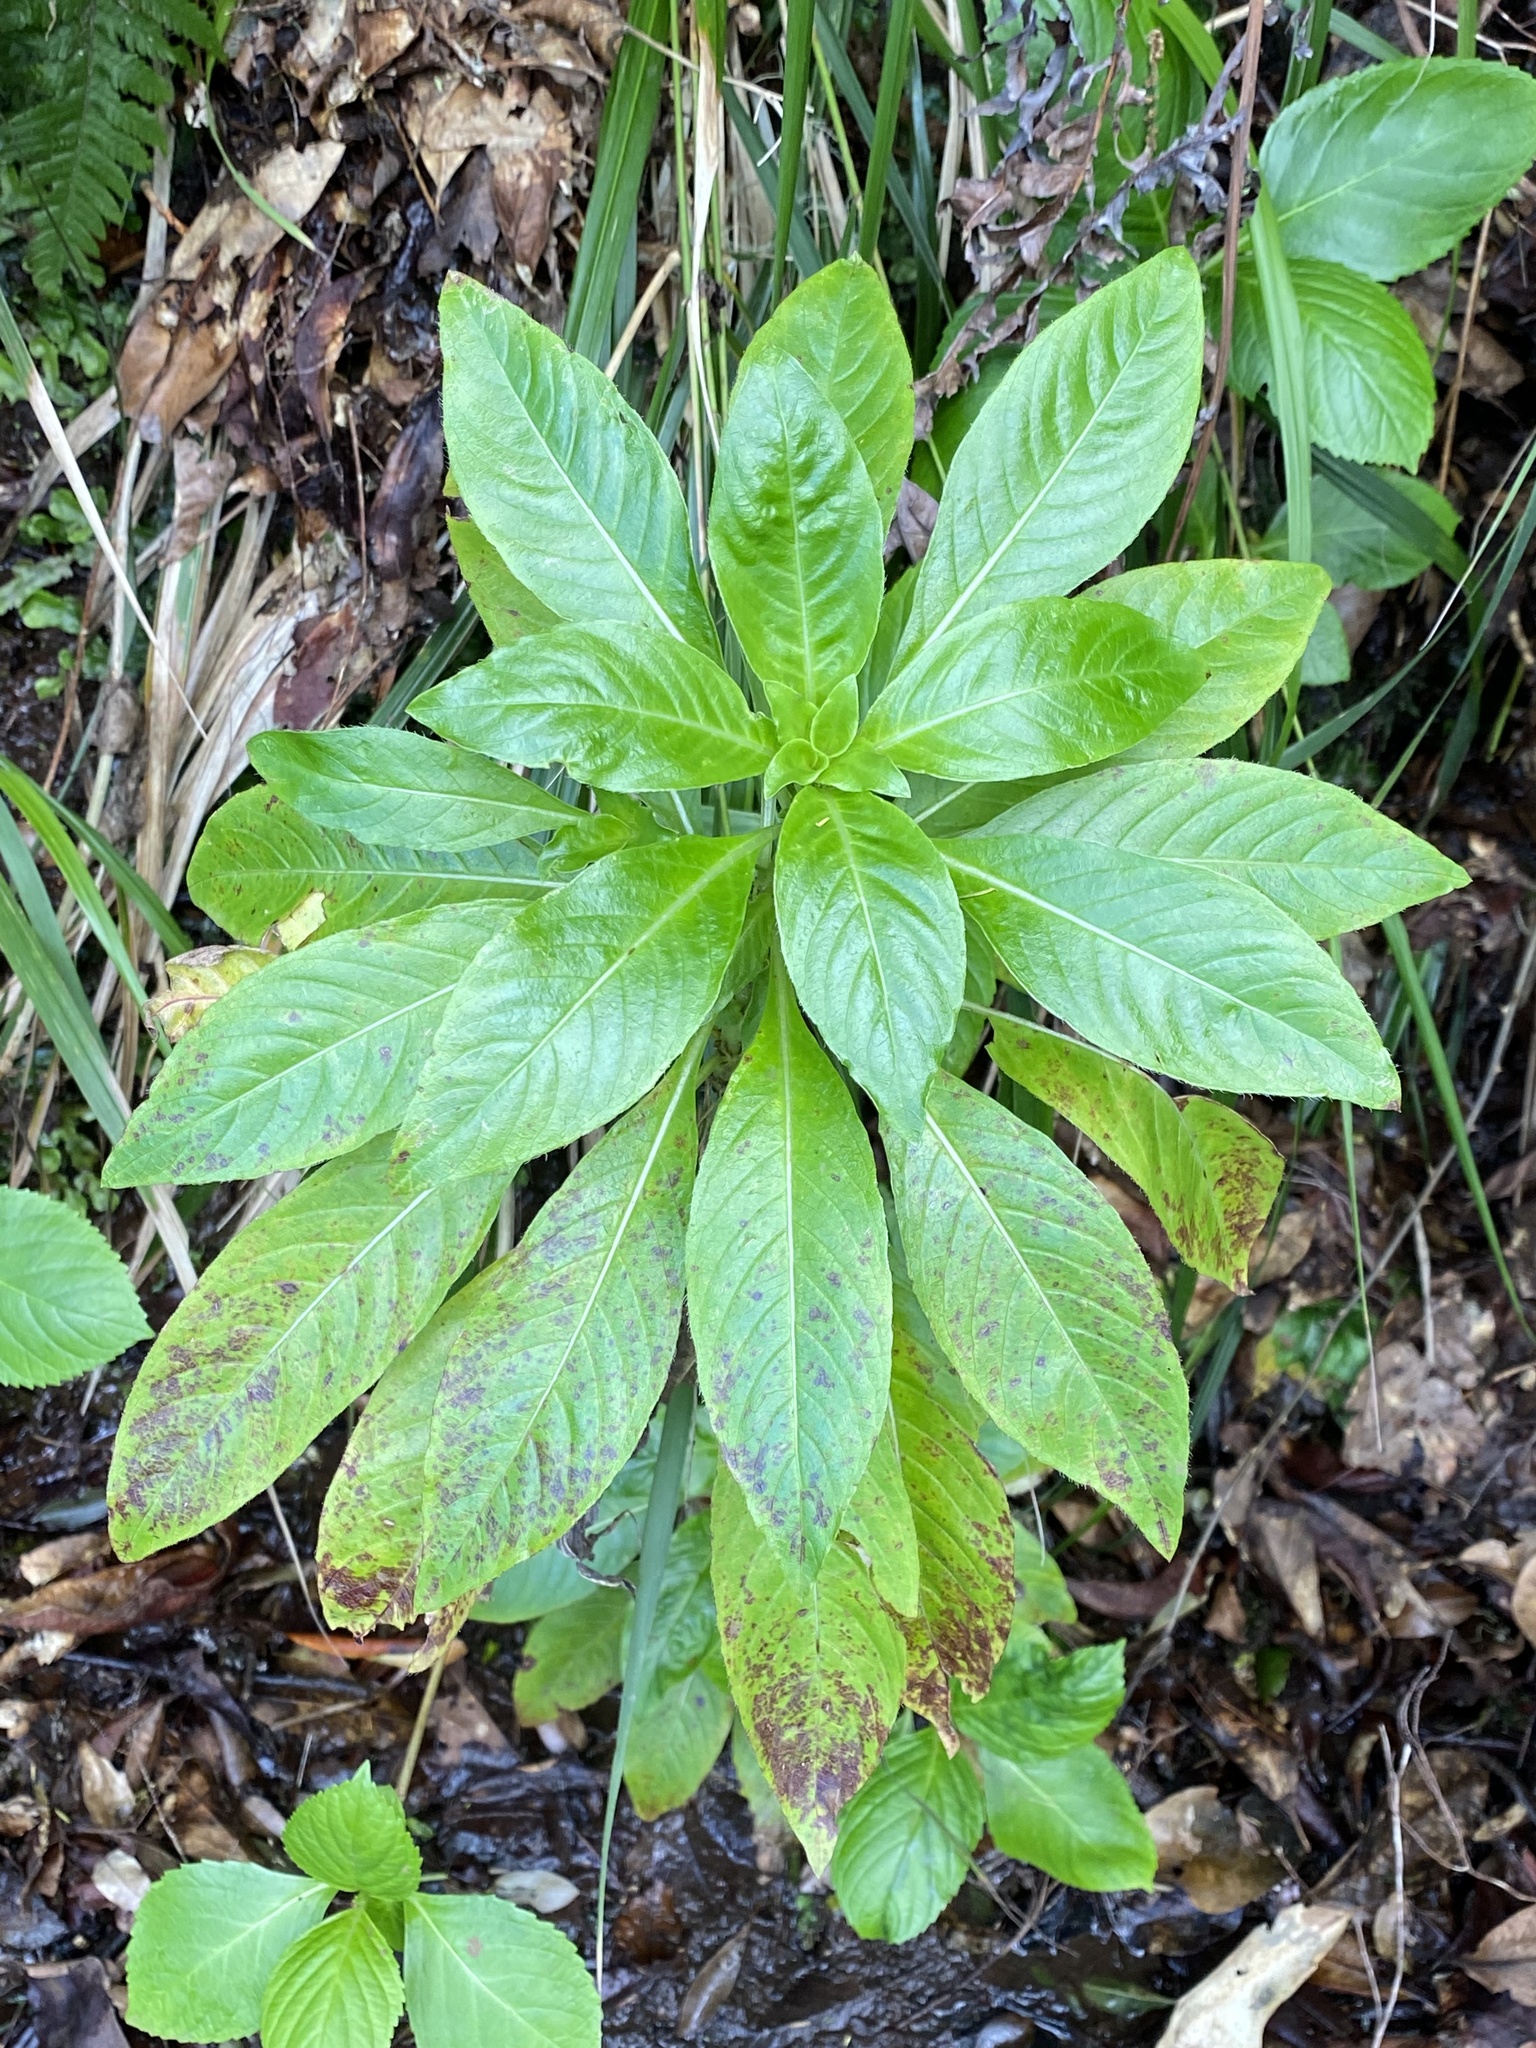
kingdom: Plantae
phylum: Tracheophyta
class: Magnoliopsida
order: Ericales
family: Balsaminaceae
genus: Impatiens
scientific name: Impatiens sodenii
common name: Oliver's touch-me-not
